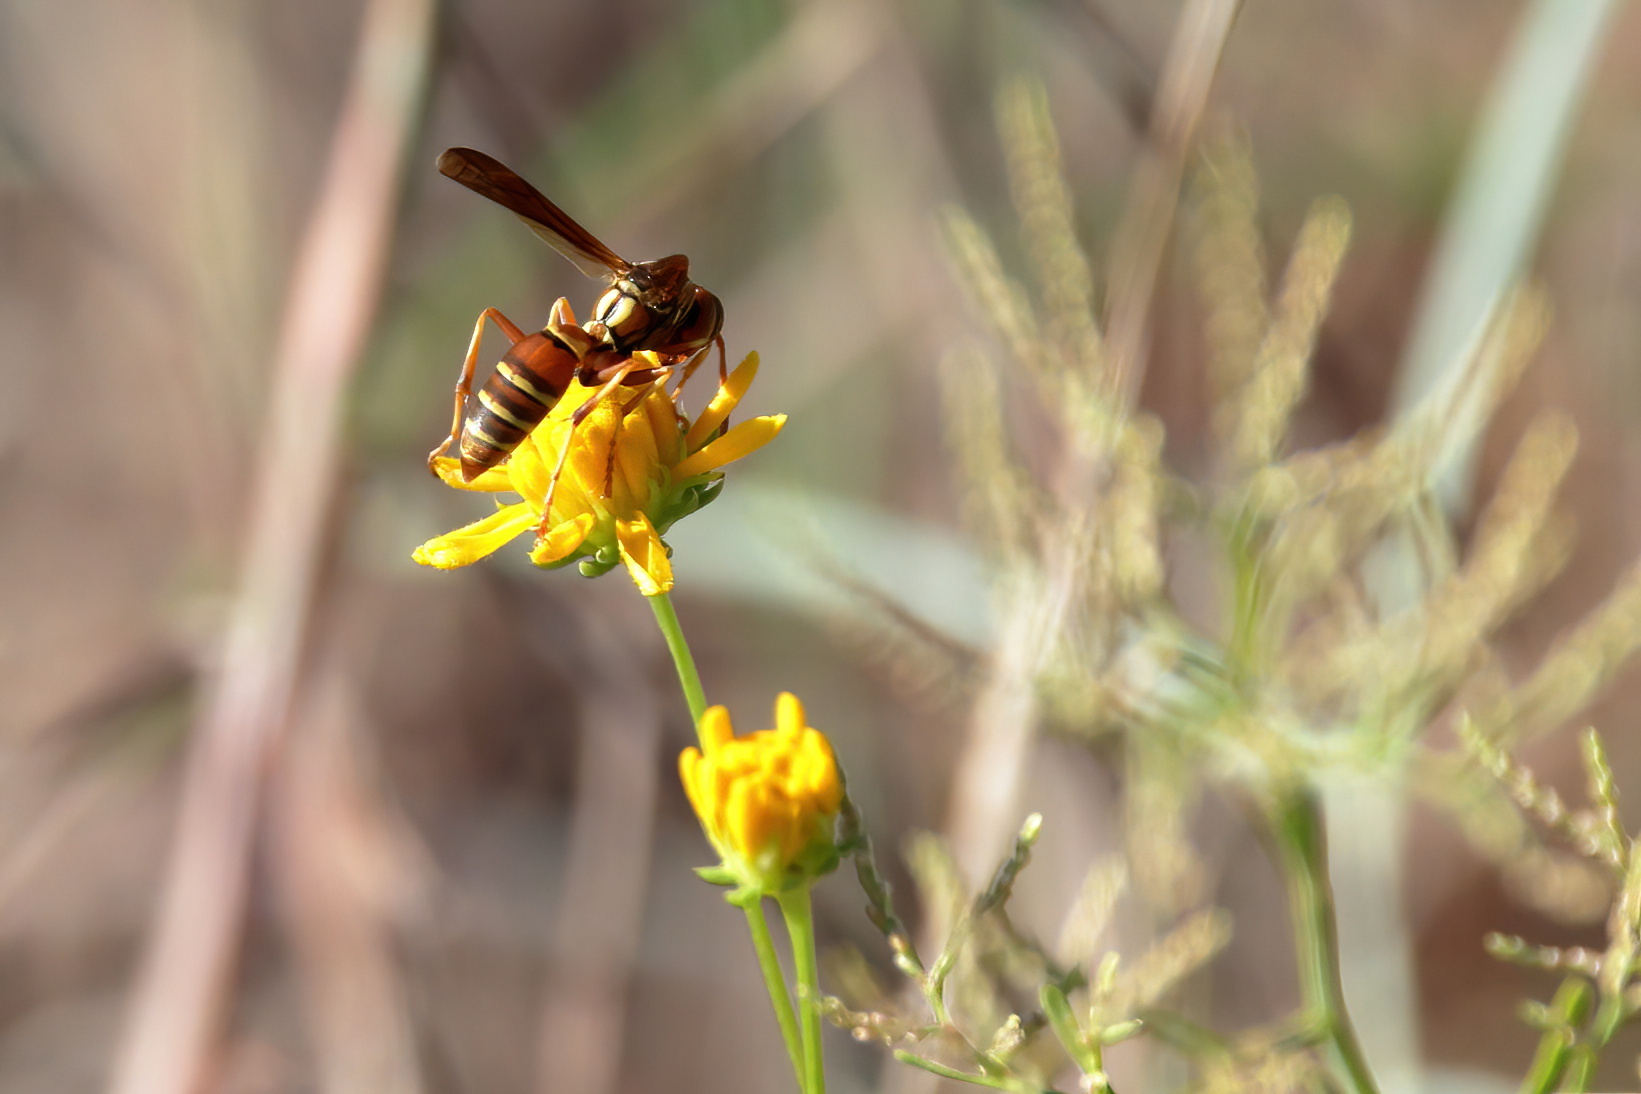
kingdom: Animalia
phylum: Arthropoda
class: Insecta
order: Hymenoptera
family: Eumenidae
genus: Polistes
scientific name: Polistes dorsalis
